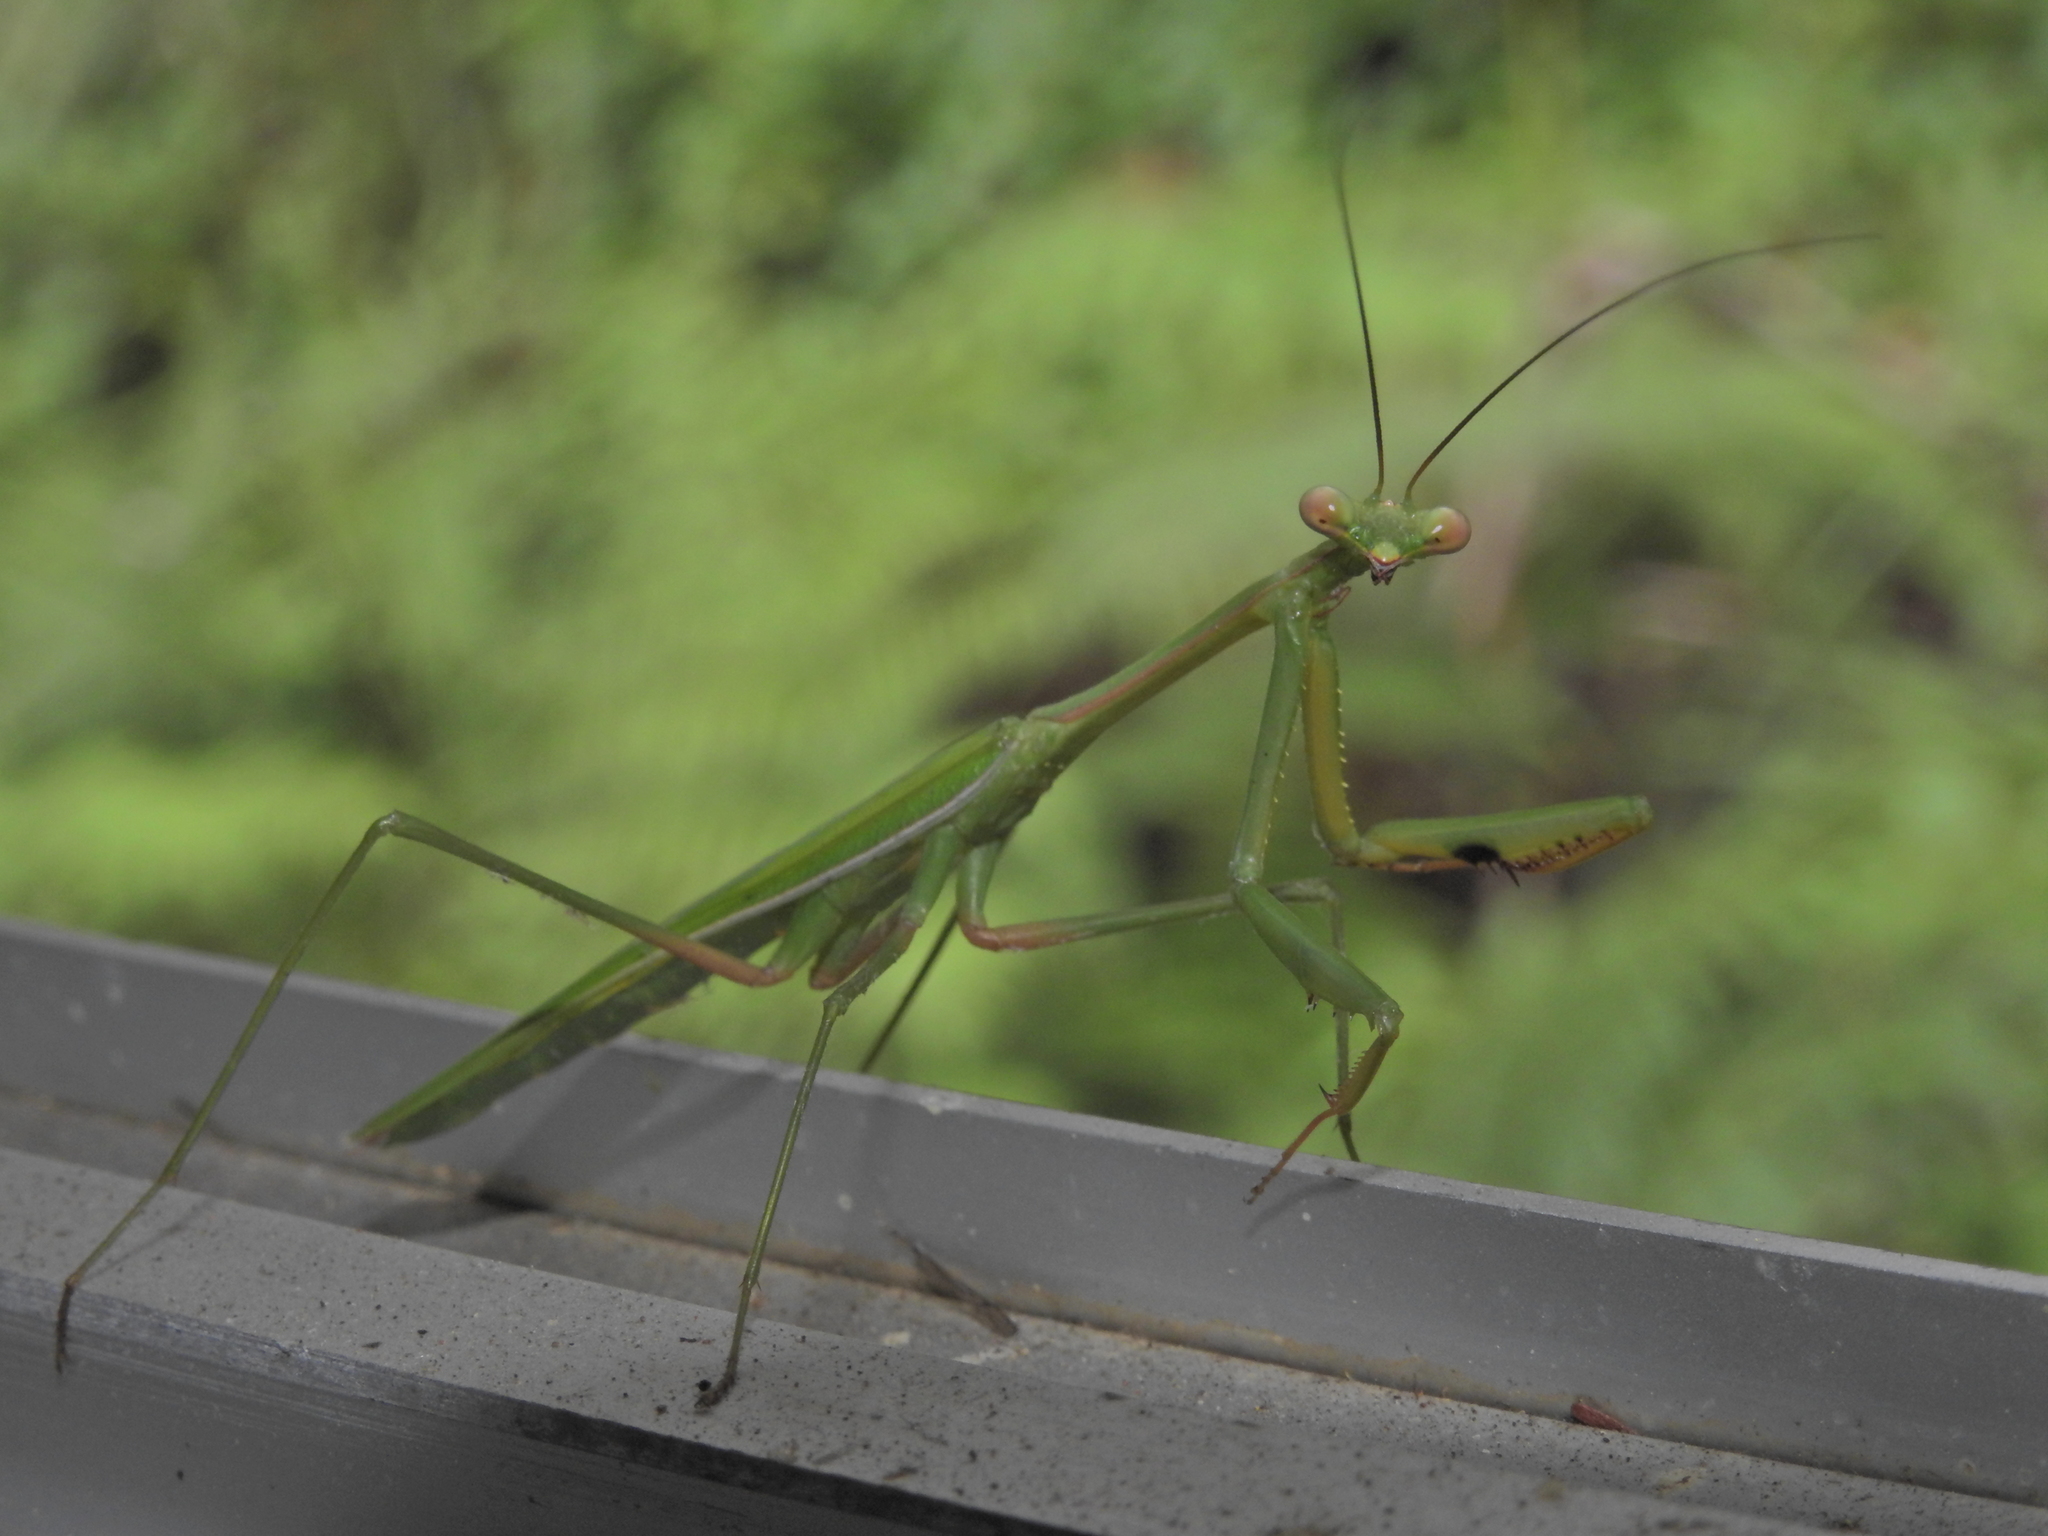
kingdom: Animalia
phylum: Arthropoda
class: Insecta
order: Mantodea
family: Mantidae
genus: Pseudomantis
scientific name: Pseudomantis albofimbriata
